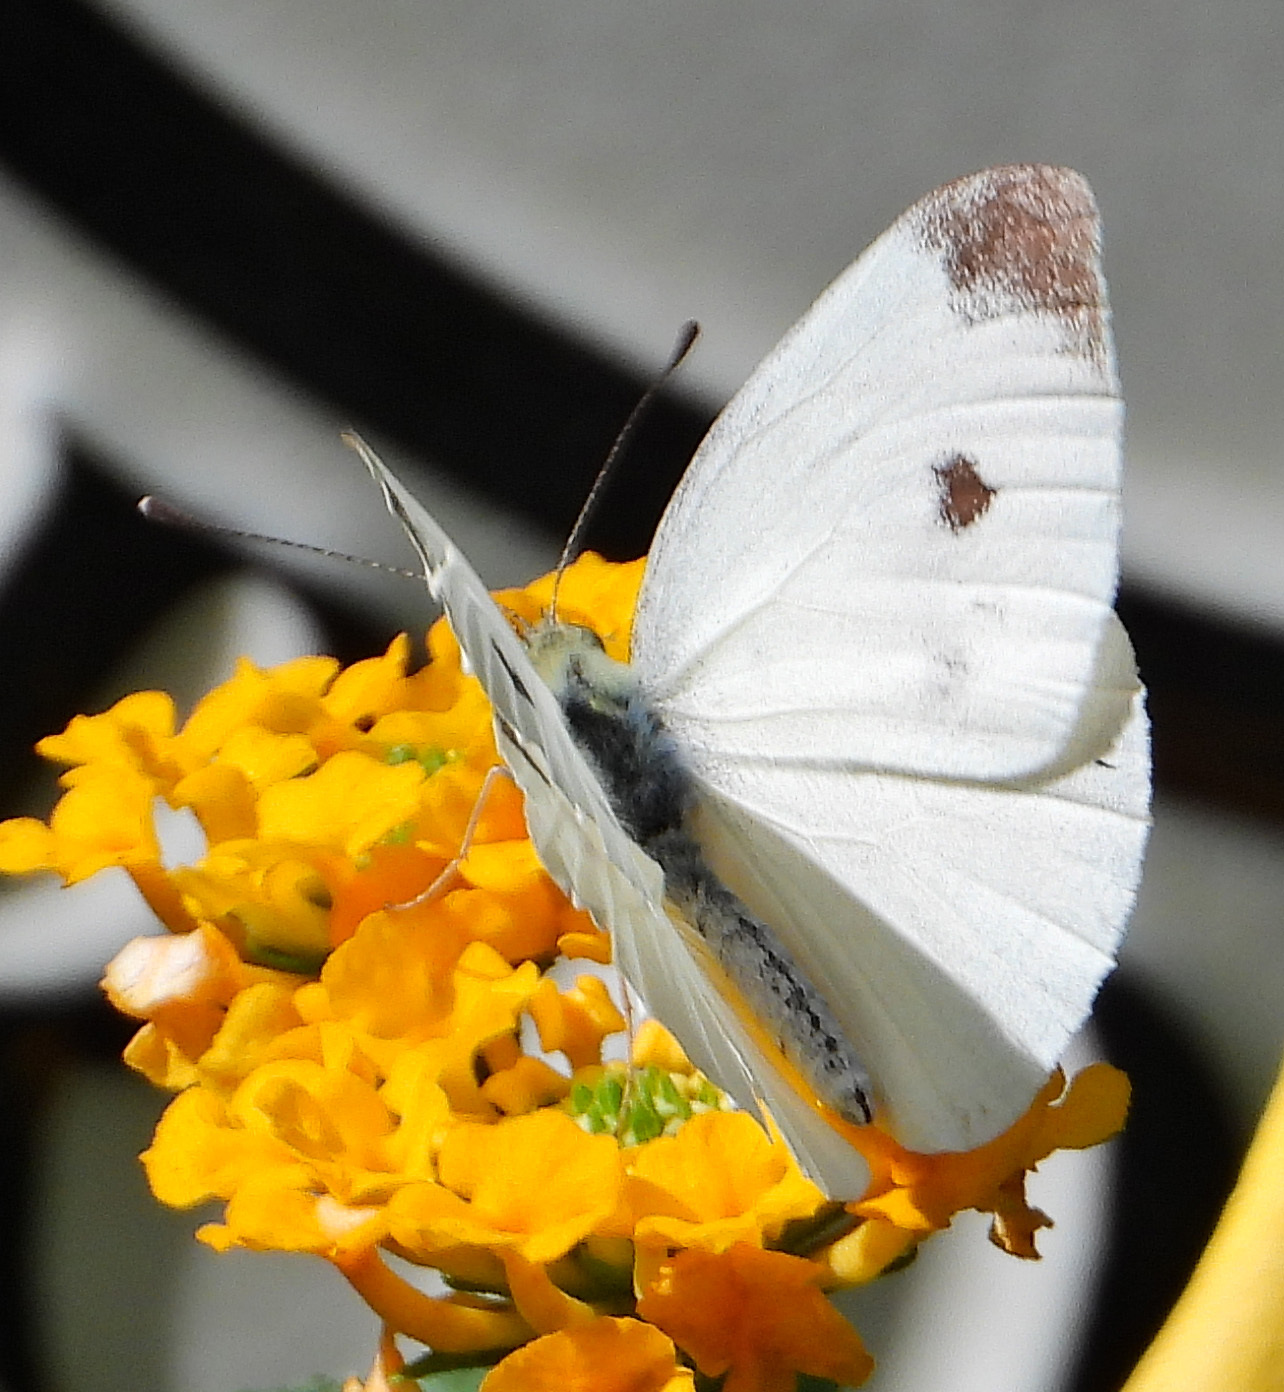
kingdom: Animalia
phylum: Arthropoda
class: Insecta
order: Lepidoptera
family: Pieridae
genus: Pieris
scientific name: Pieris rapae
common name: Small white
